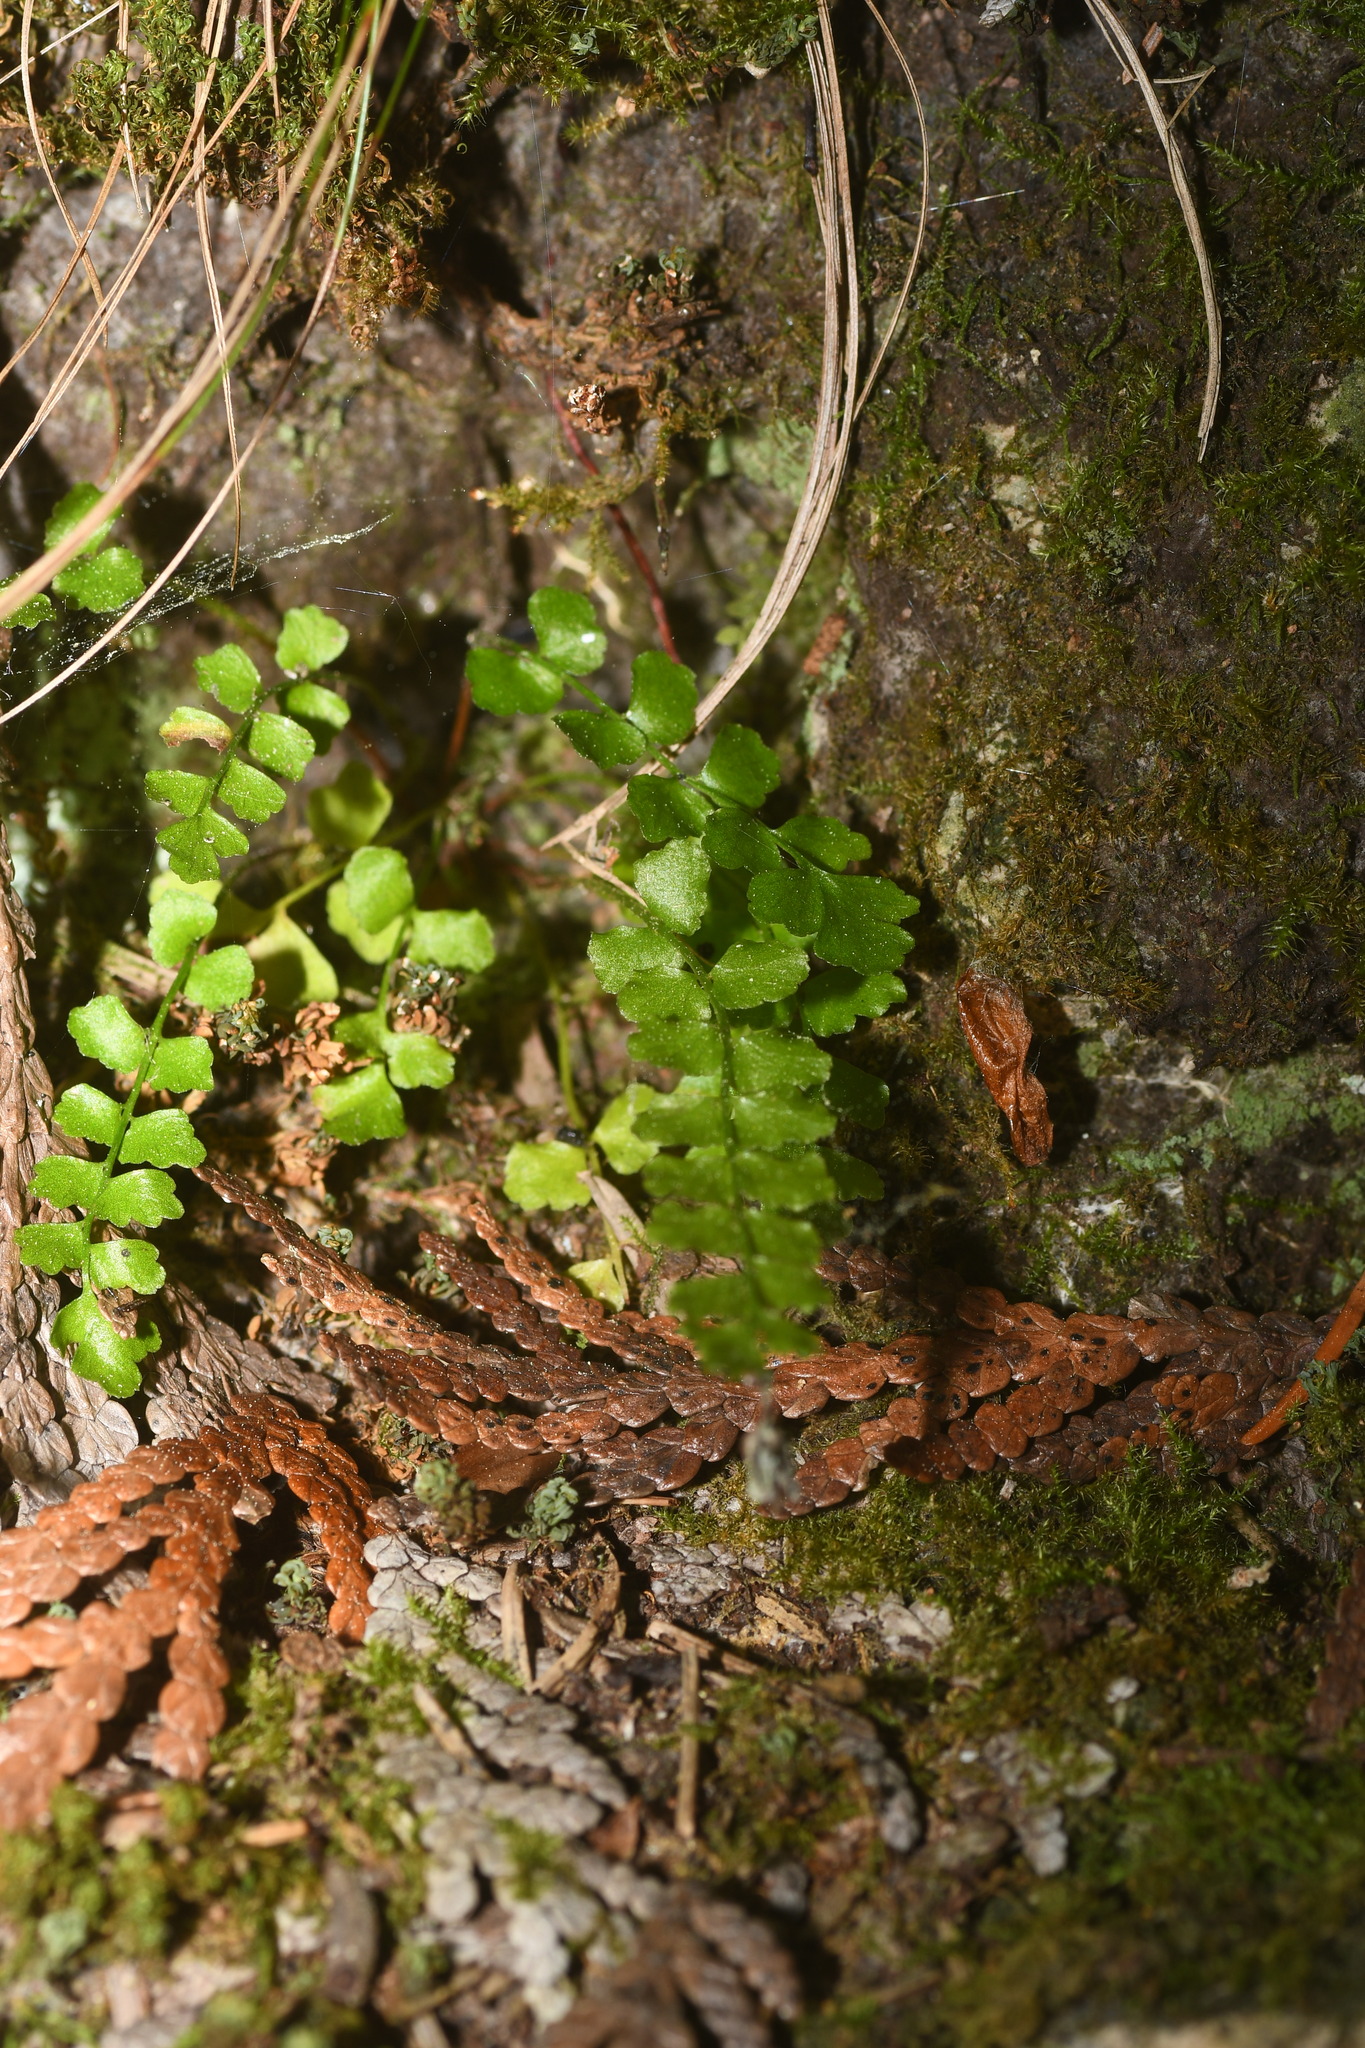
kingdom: Plantae
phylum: Tracheophyta
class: Polypodiopsida
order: Polypodiales
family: Aspleniaceae
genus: Asplenium
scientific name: Asplenium viride
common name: Green spleenwort
